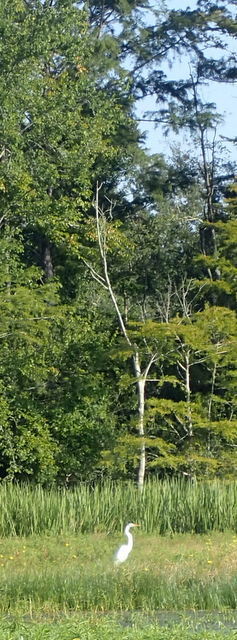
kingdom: Animalia
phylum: Chordata
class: Aves
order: Pelecaniformes
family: Ardeidae
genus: Ardea
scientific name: Ardea alba
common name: Great egret
